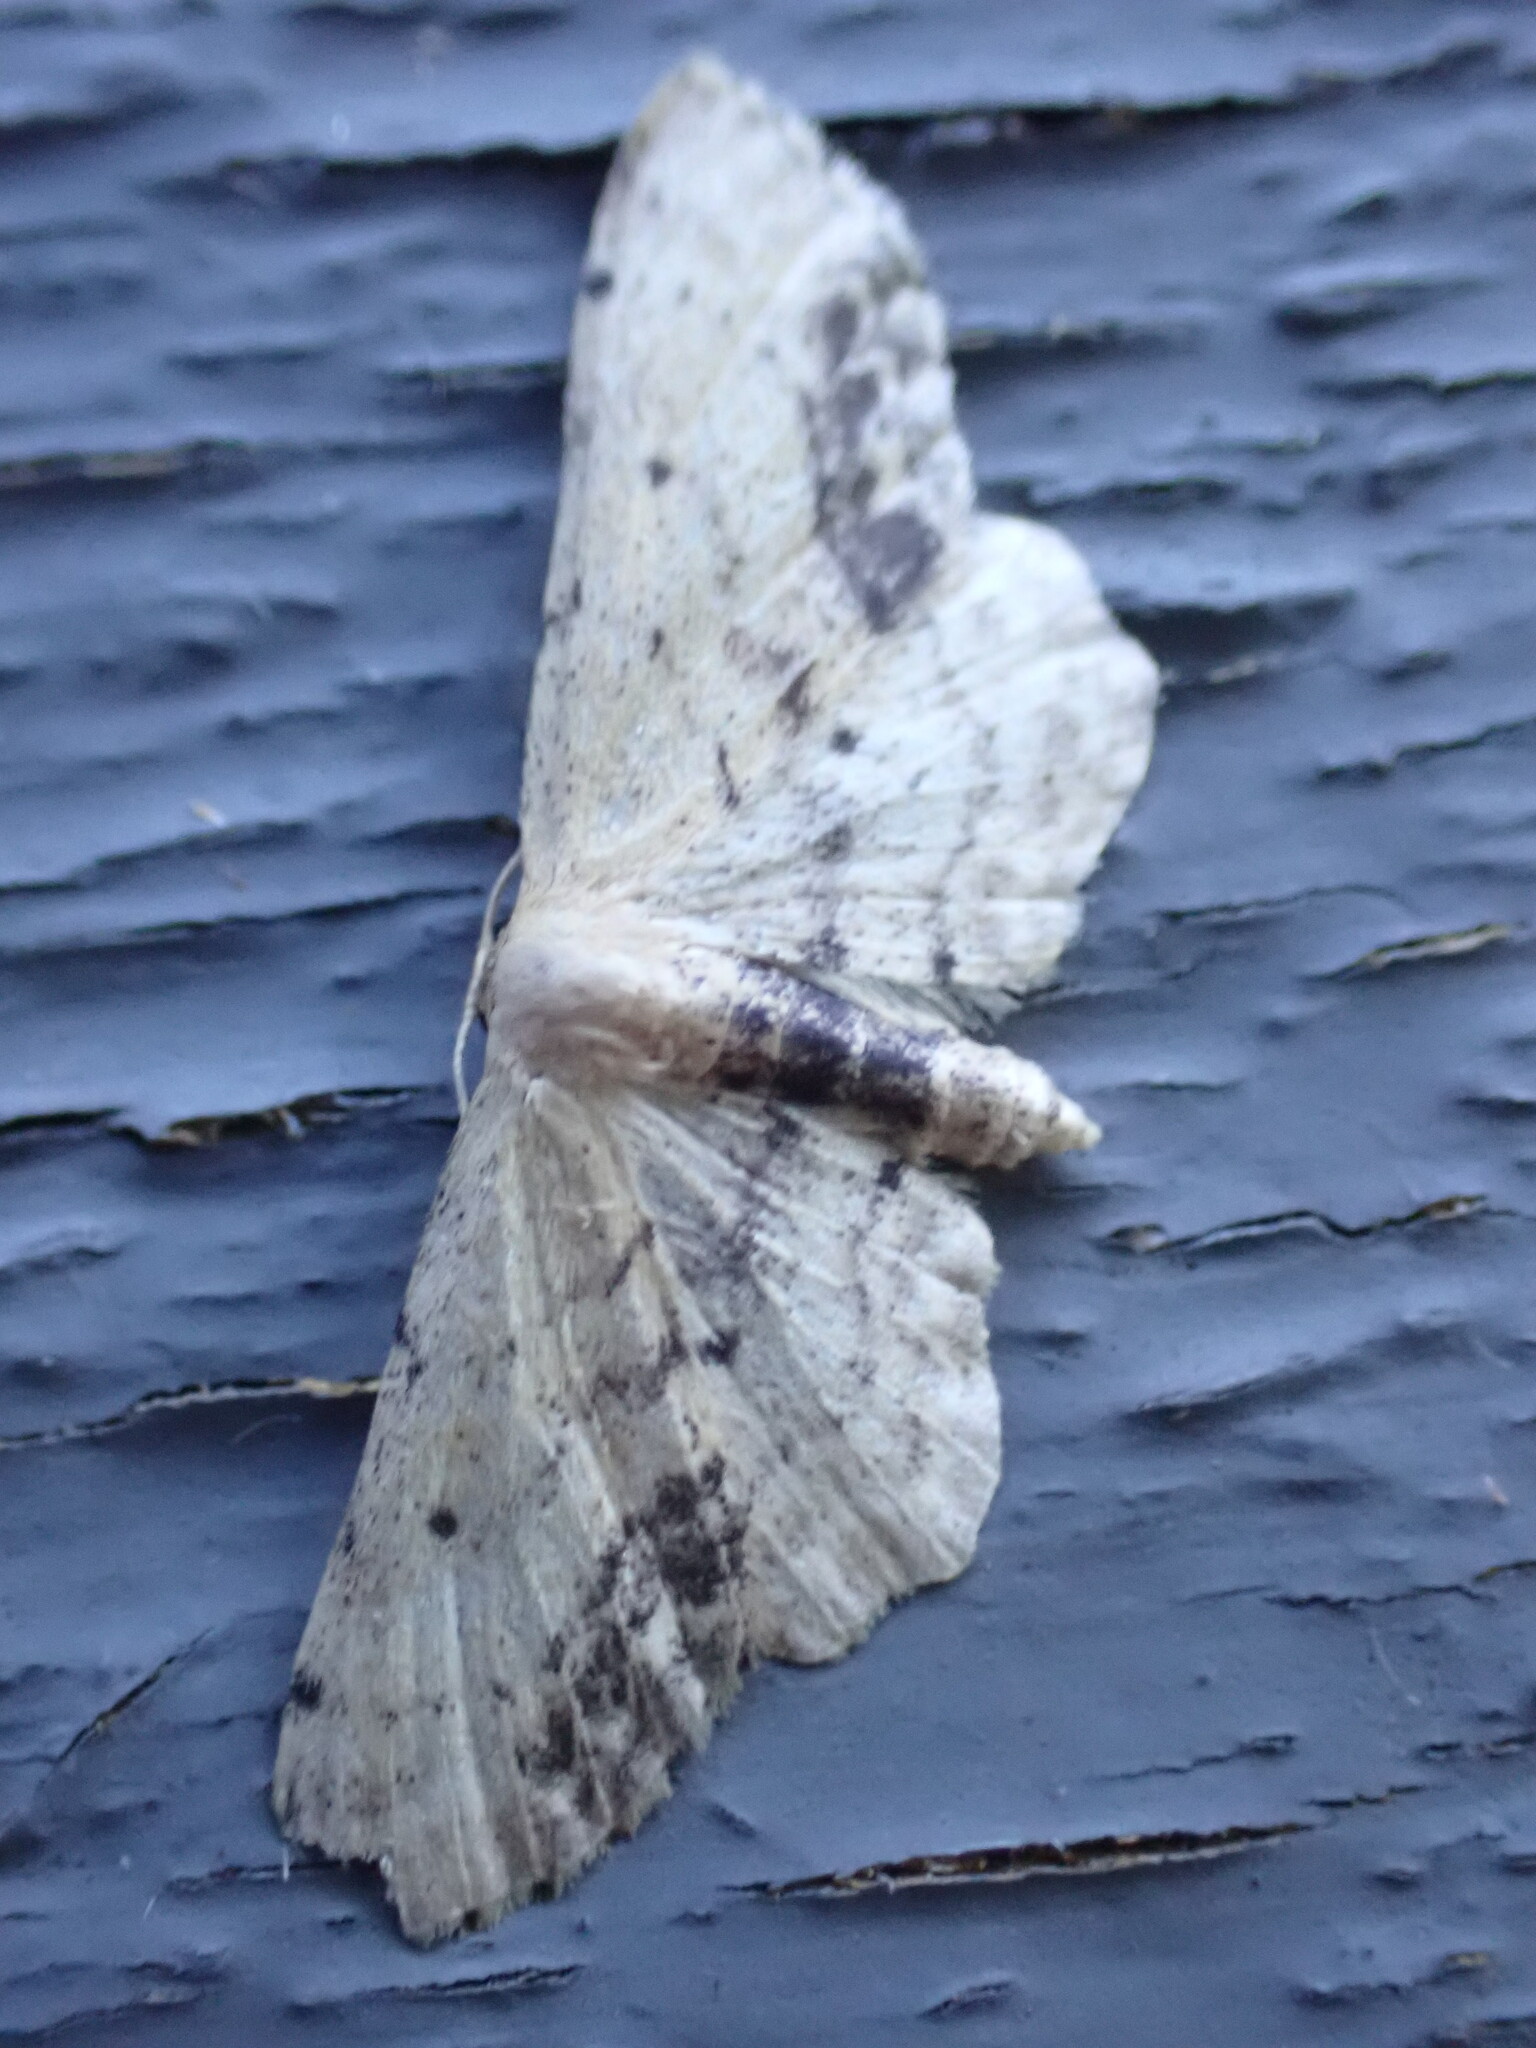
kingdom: Animalia
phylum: Arthropoda
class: Insecta
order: Lepidoptera
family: Geometridae
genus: Idaea
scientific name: Idaea dimidiata
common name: Single-dotted wave
